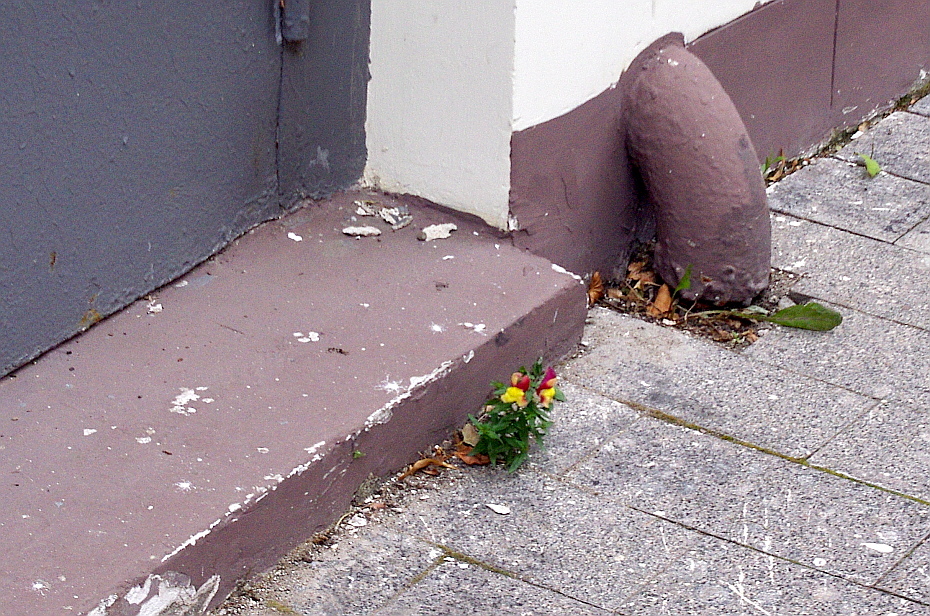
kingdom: Plantae
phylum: Tracheophyta
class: Magnoliopsida
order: Lamiales
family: Plantaginaceae
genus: Antirrhinum
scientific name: Antirrhinum majus
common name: Snapdragon
